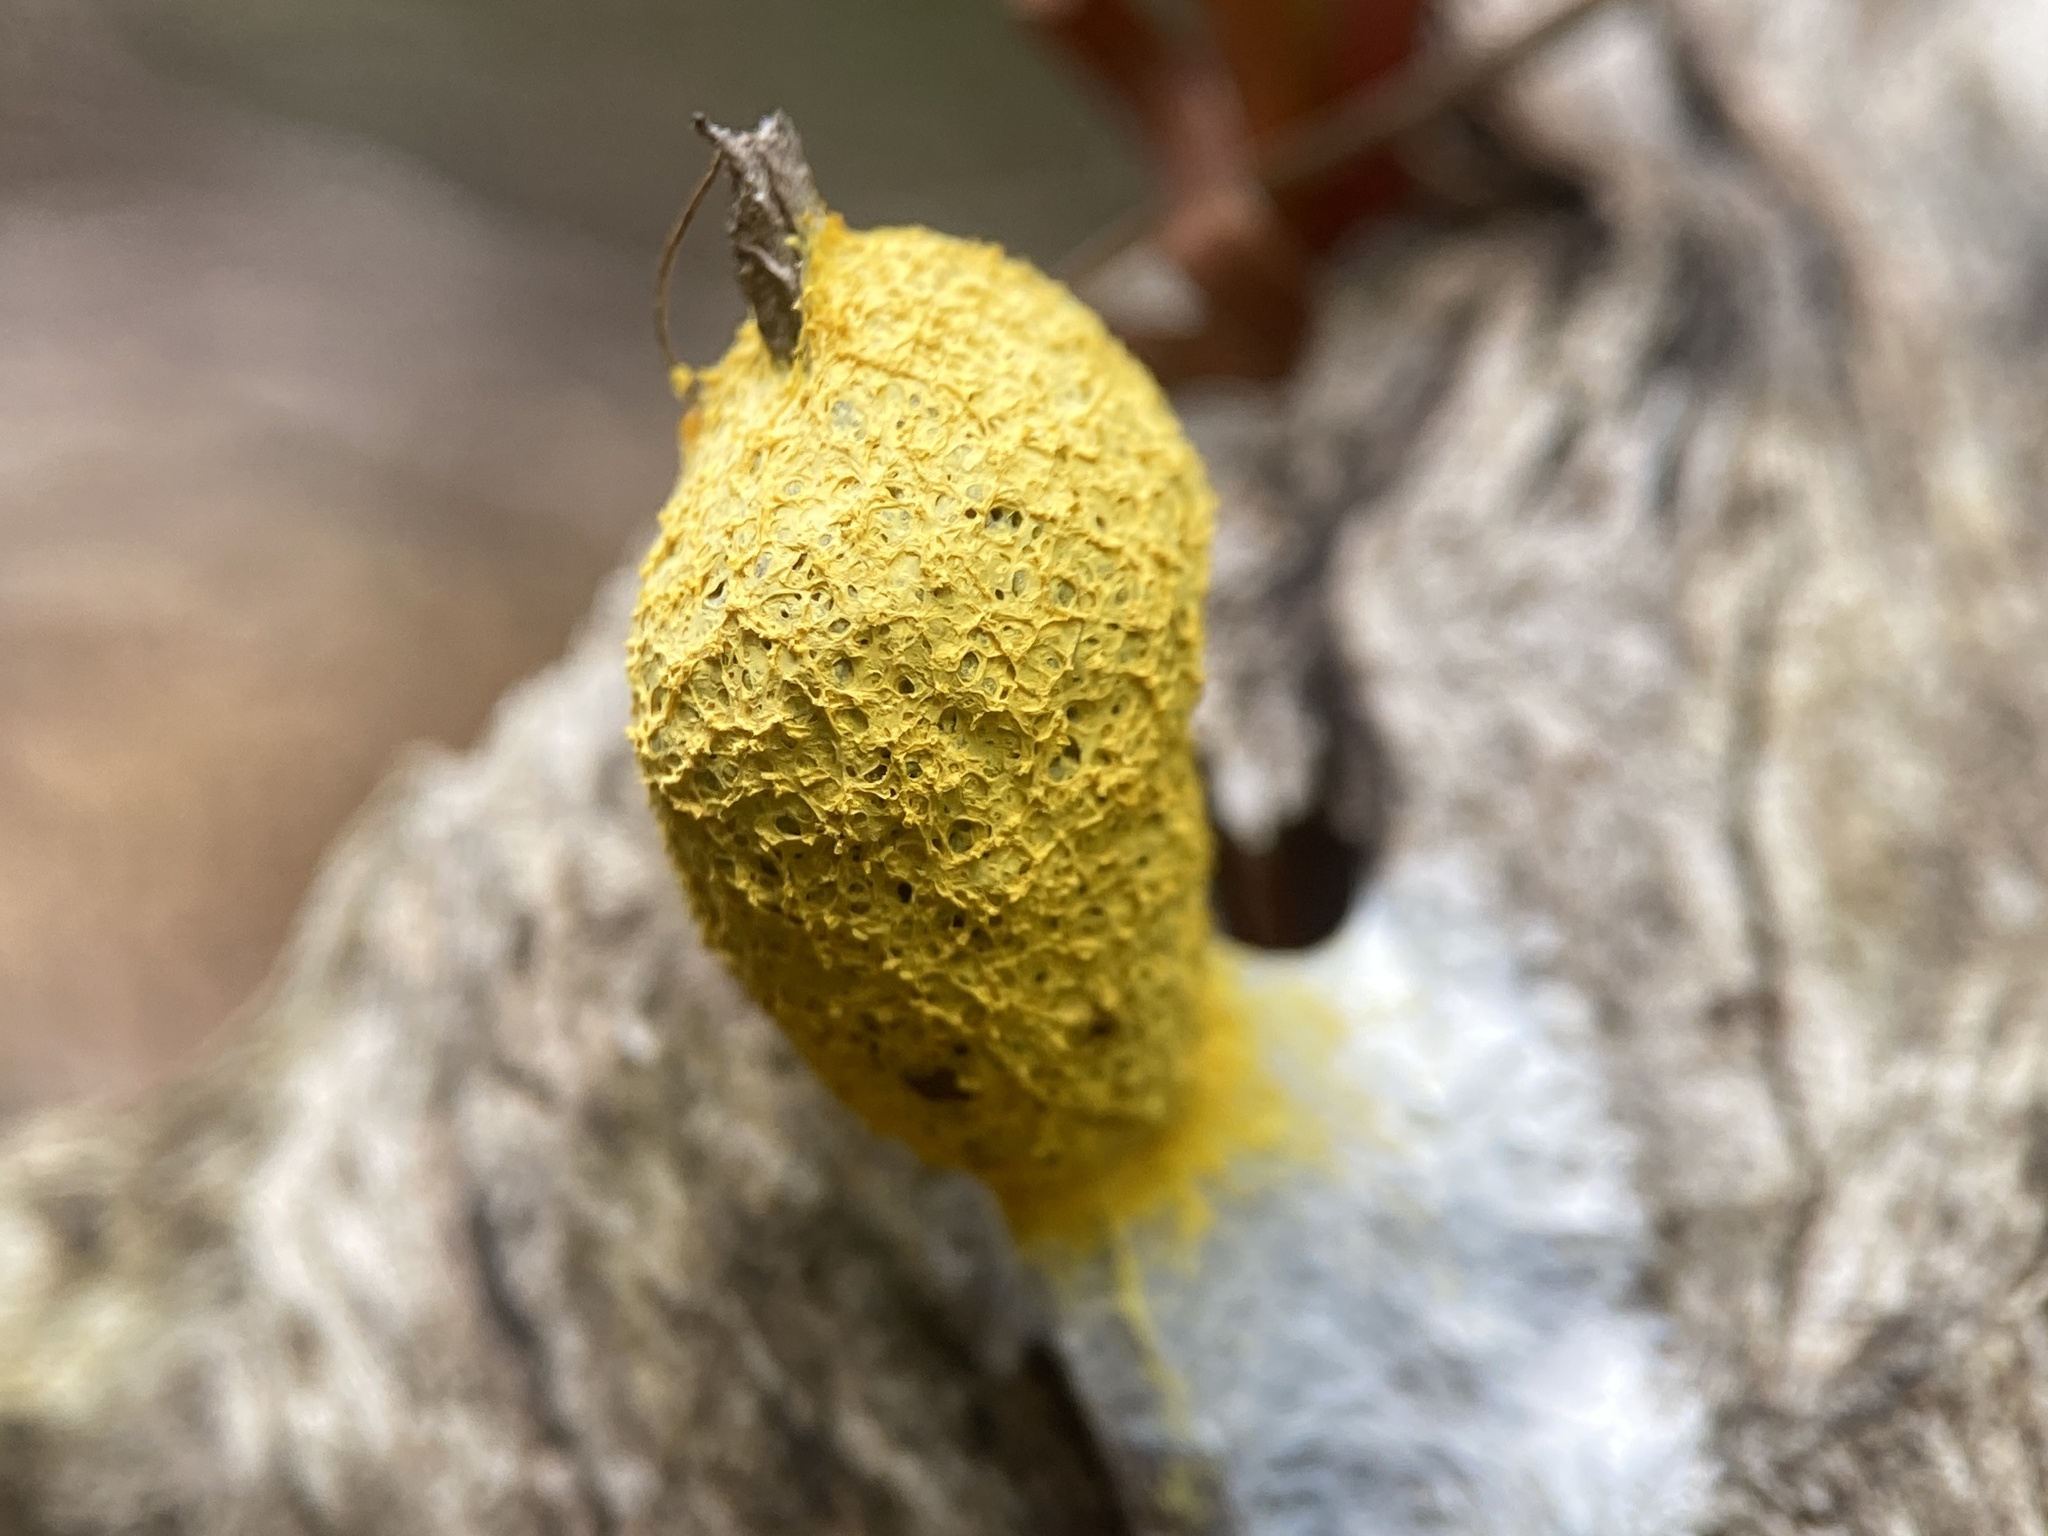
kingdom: Protozoa
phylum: Mycetozoa
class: Myxomycetes
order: Physarales
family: Physaraceae
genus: Fuligo
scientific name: Fuligo septica
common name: Dog vomit slime mold
